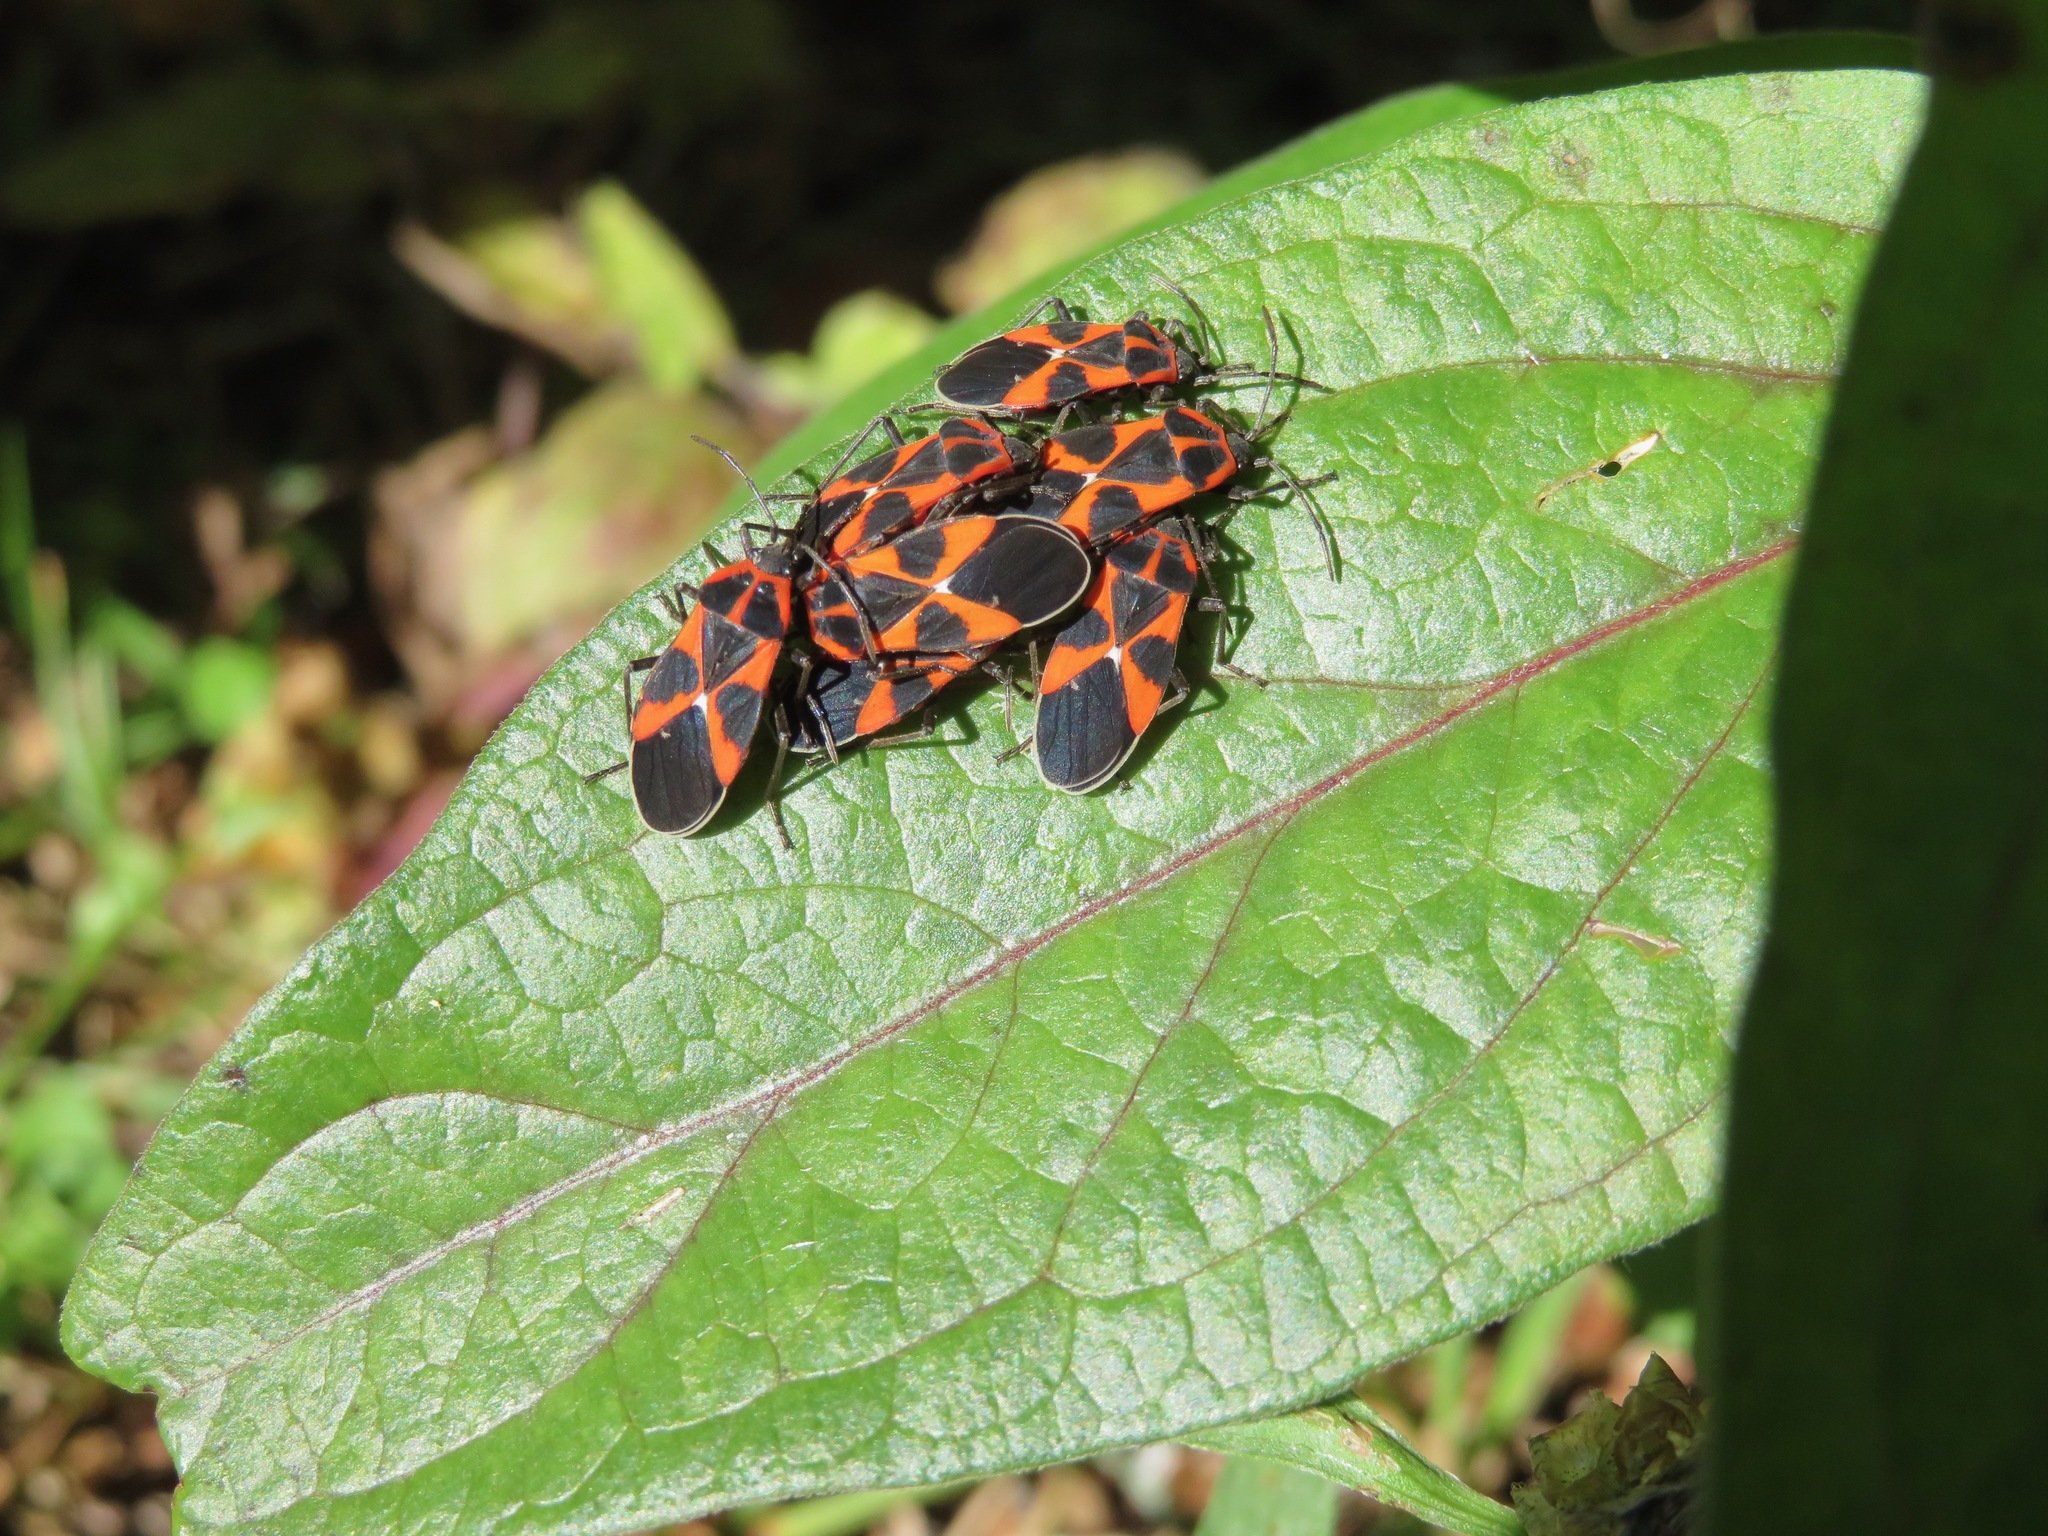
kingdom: Animalia
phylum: Arthropoda
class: Insecta
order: Hemiptera
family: Lygaeidae
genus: Tropidothorax
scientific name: Tropidothorax leucopterus
